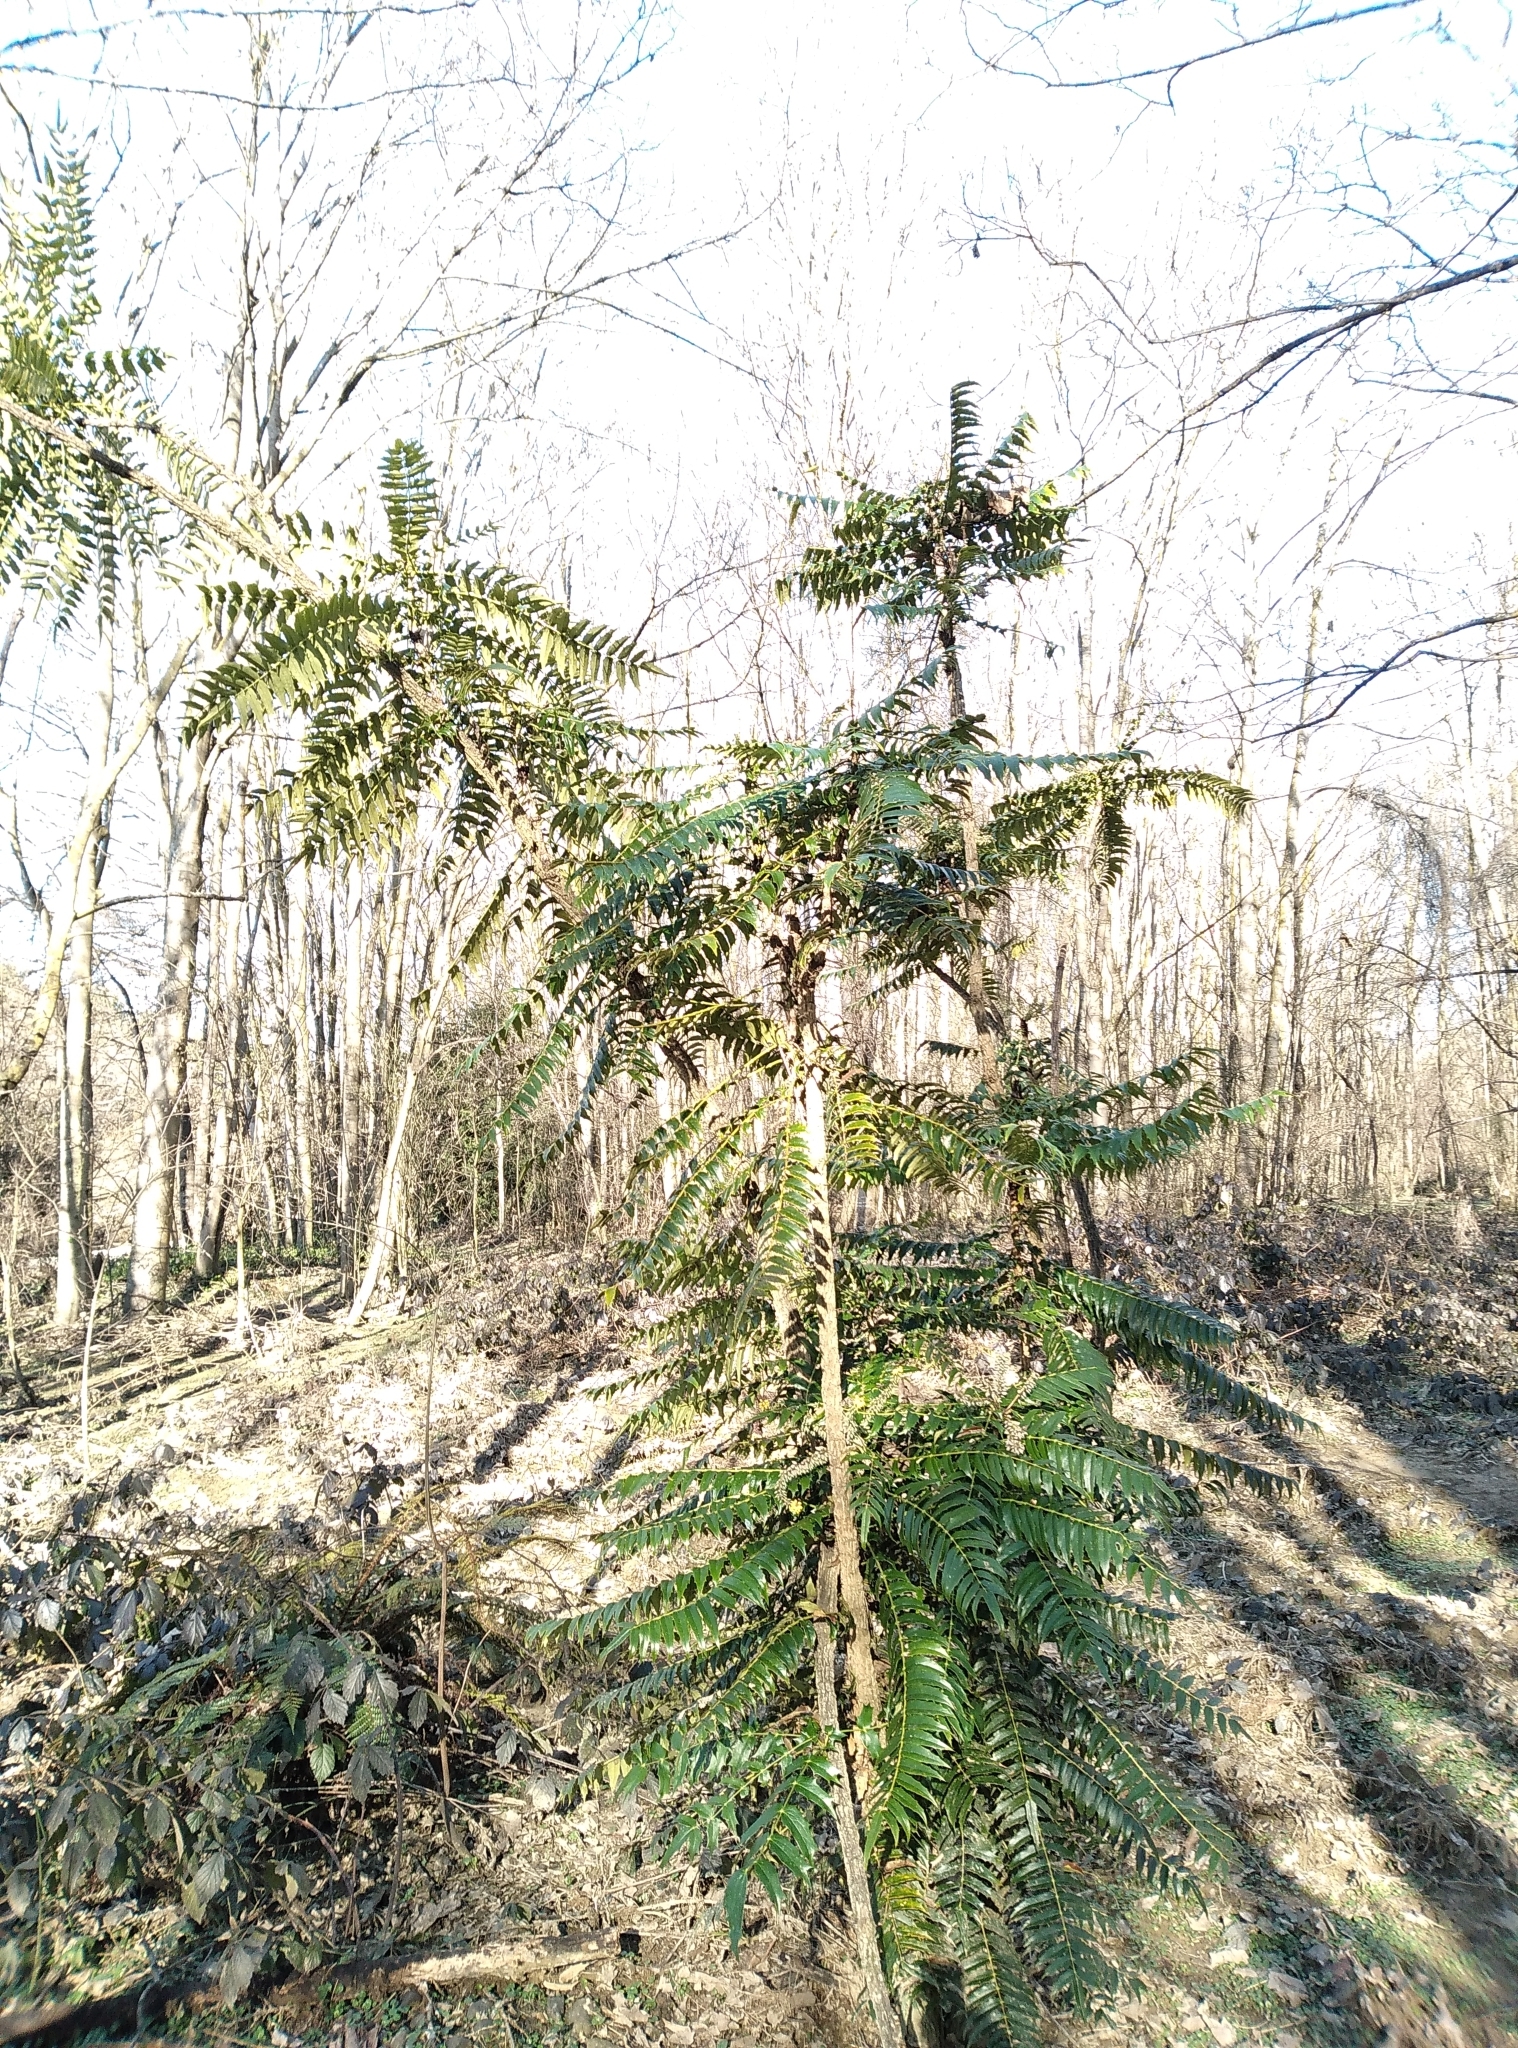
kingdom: Plantae
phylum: Tracheophyta
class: Magnoliopsida
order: Ranunculales
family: Berberidaceae
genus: Mahonia
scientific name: Mahonia oiwakensis
